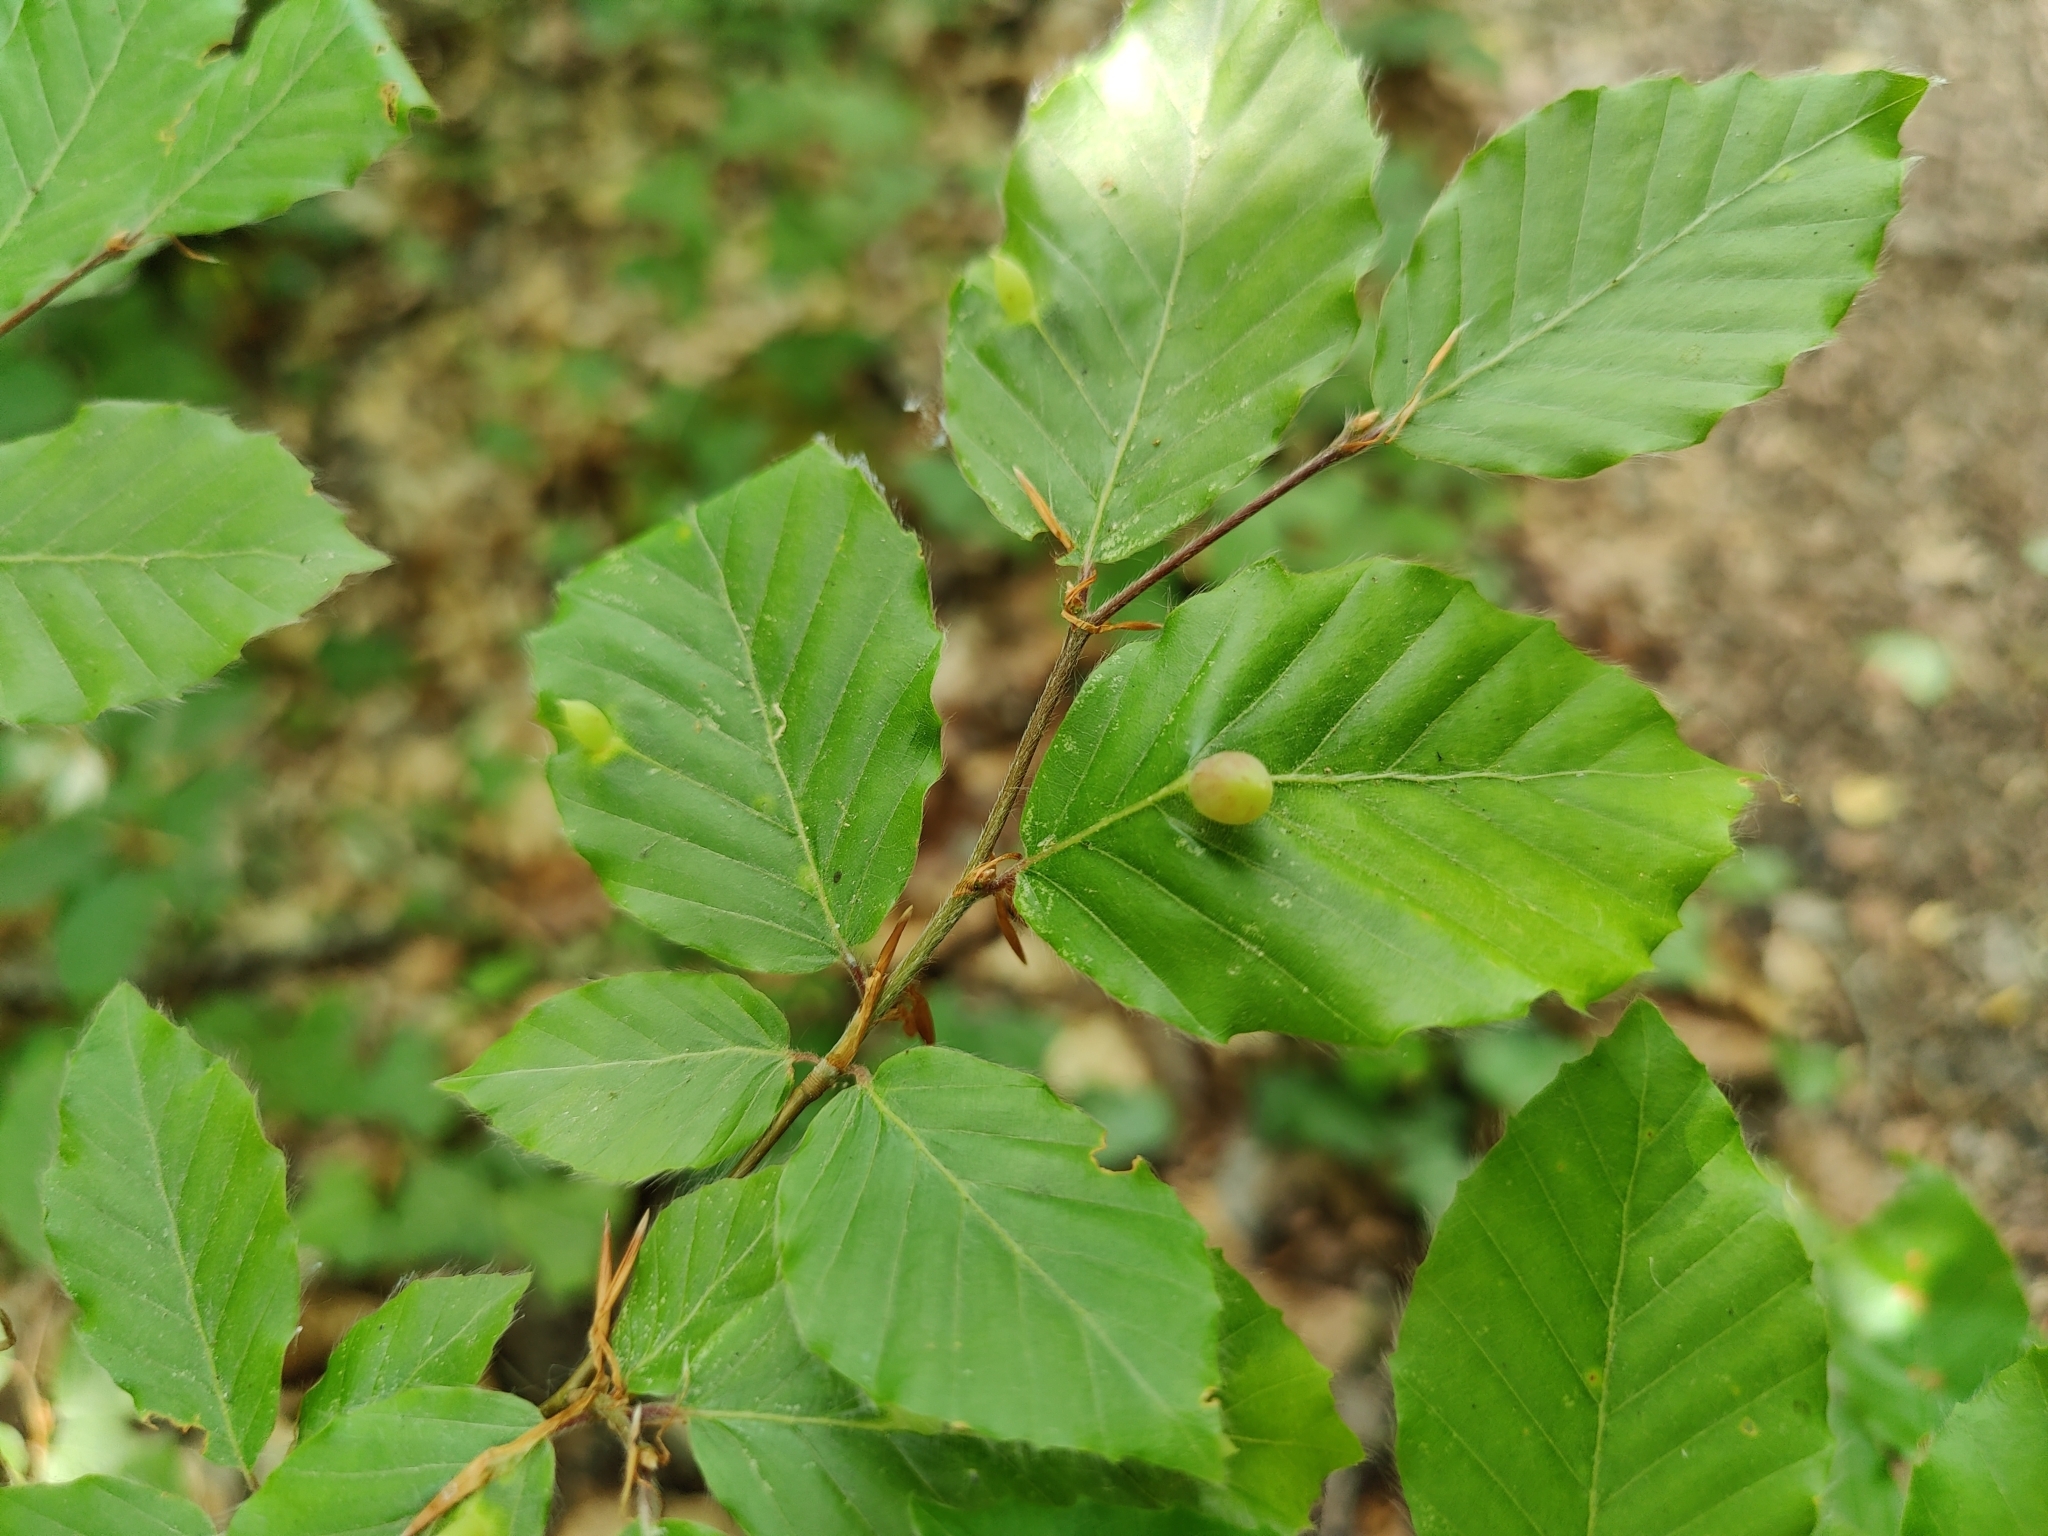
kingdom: Animalia
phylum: Arthropoda
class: Insecta
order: Diptera
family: Cecidomyiidae
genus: Mikiola
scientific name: Mikiola fagi
